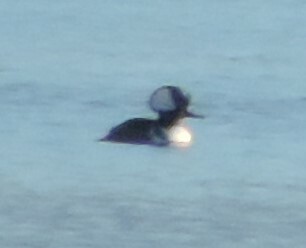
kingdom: Animalia
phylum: Chordata
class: Aves
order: Anseriformes
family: Anatidae
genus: Lophodytes
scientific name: Lophodytes cucullatus
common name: Hooded merganser
